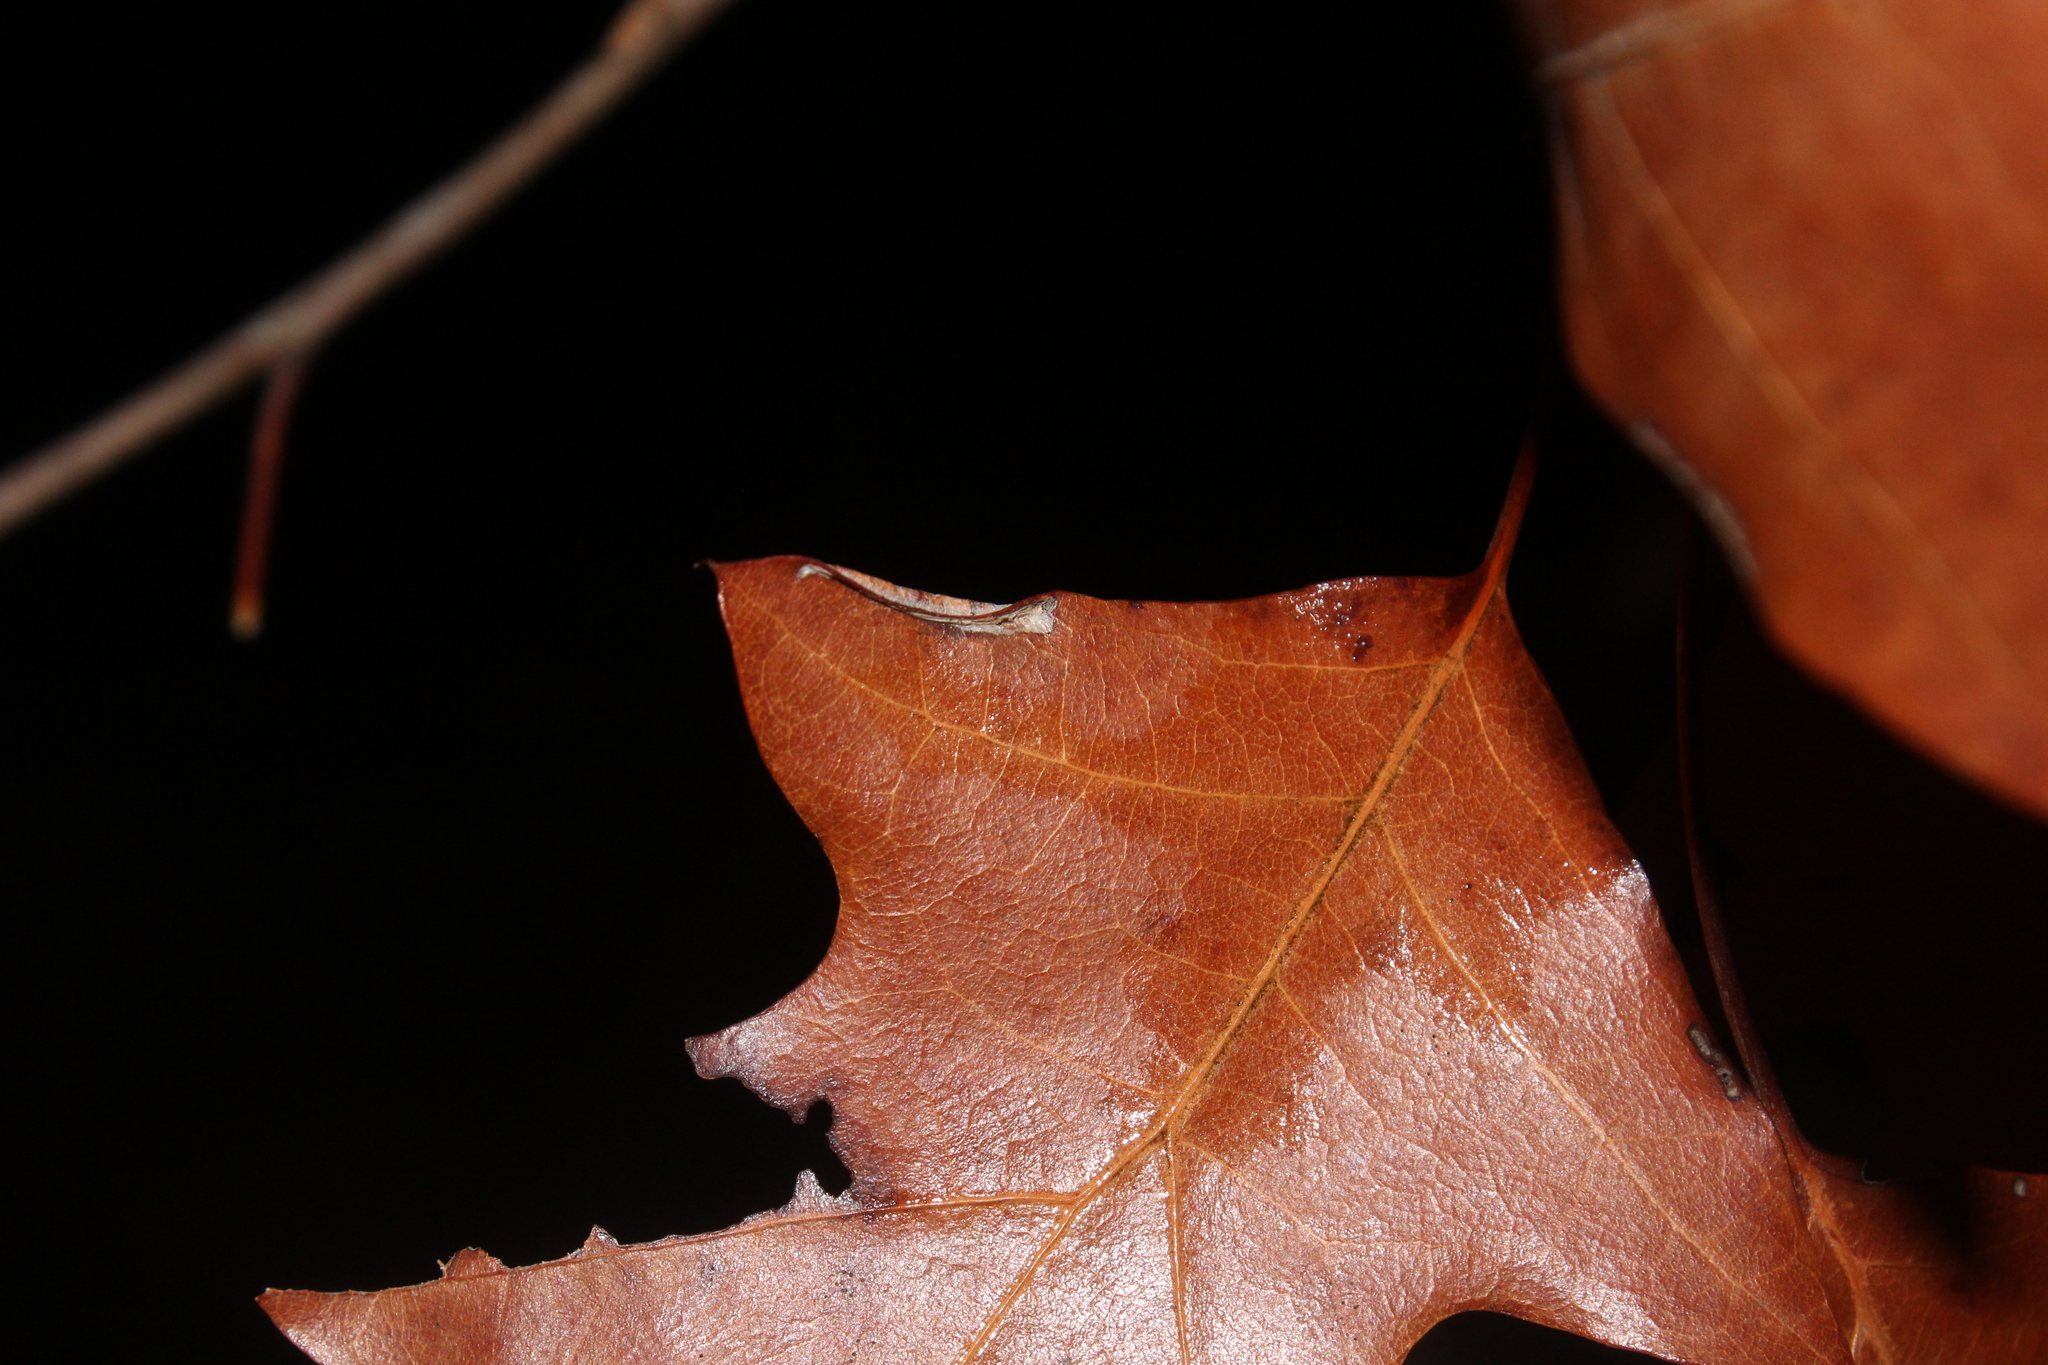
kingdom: Animalia
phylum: Arthropoda
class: Insecta
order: Lepidoptera
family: Tischeriidae
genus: Coptotriche
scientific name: Coptotriche
